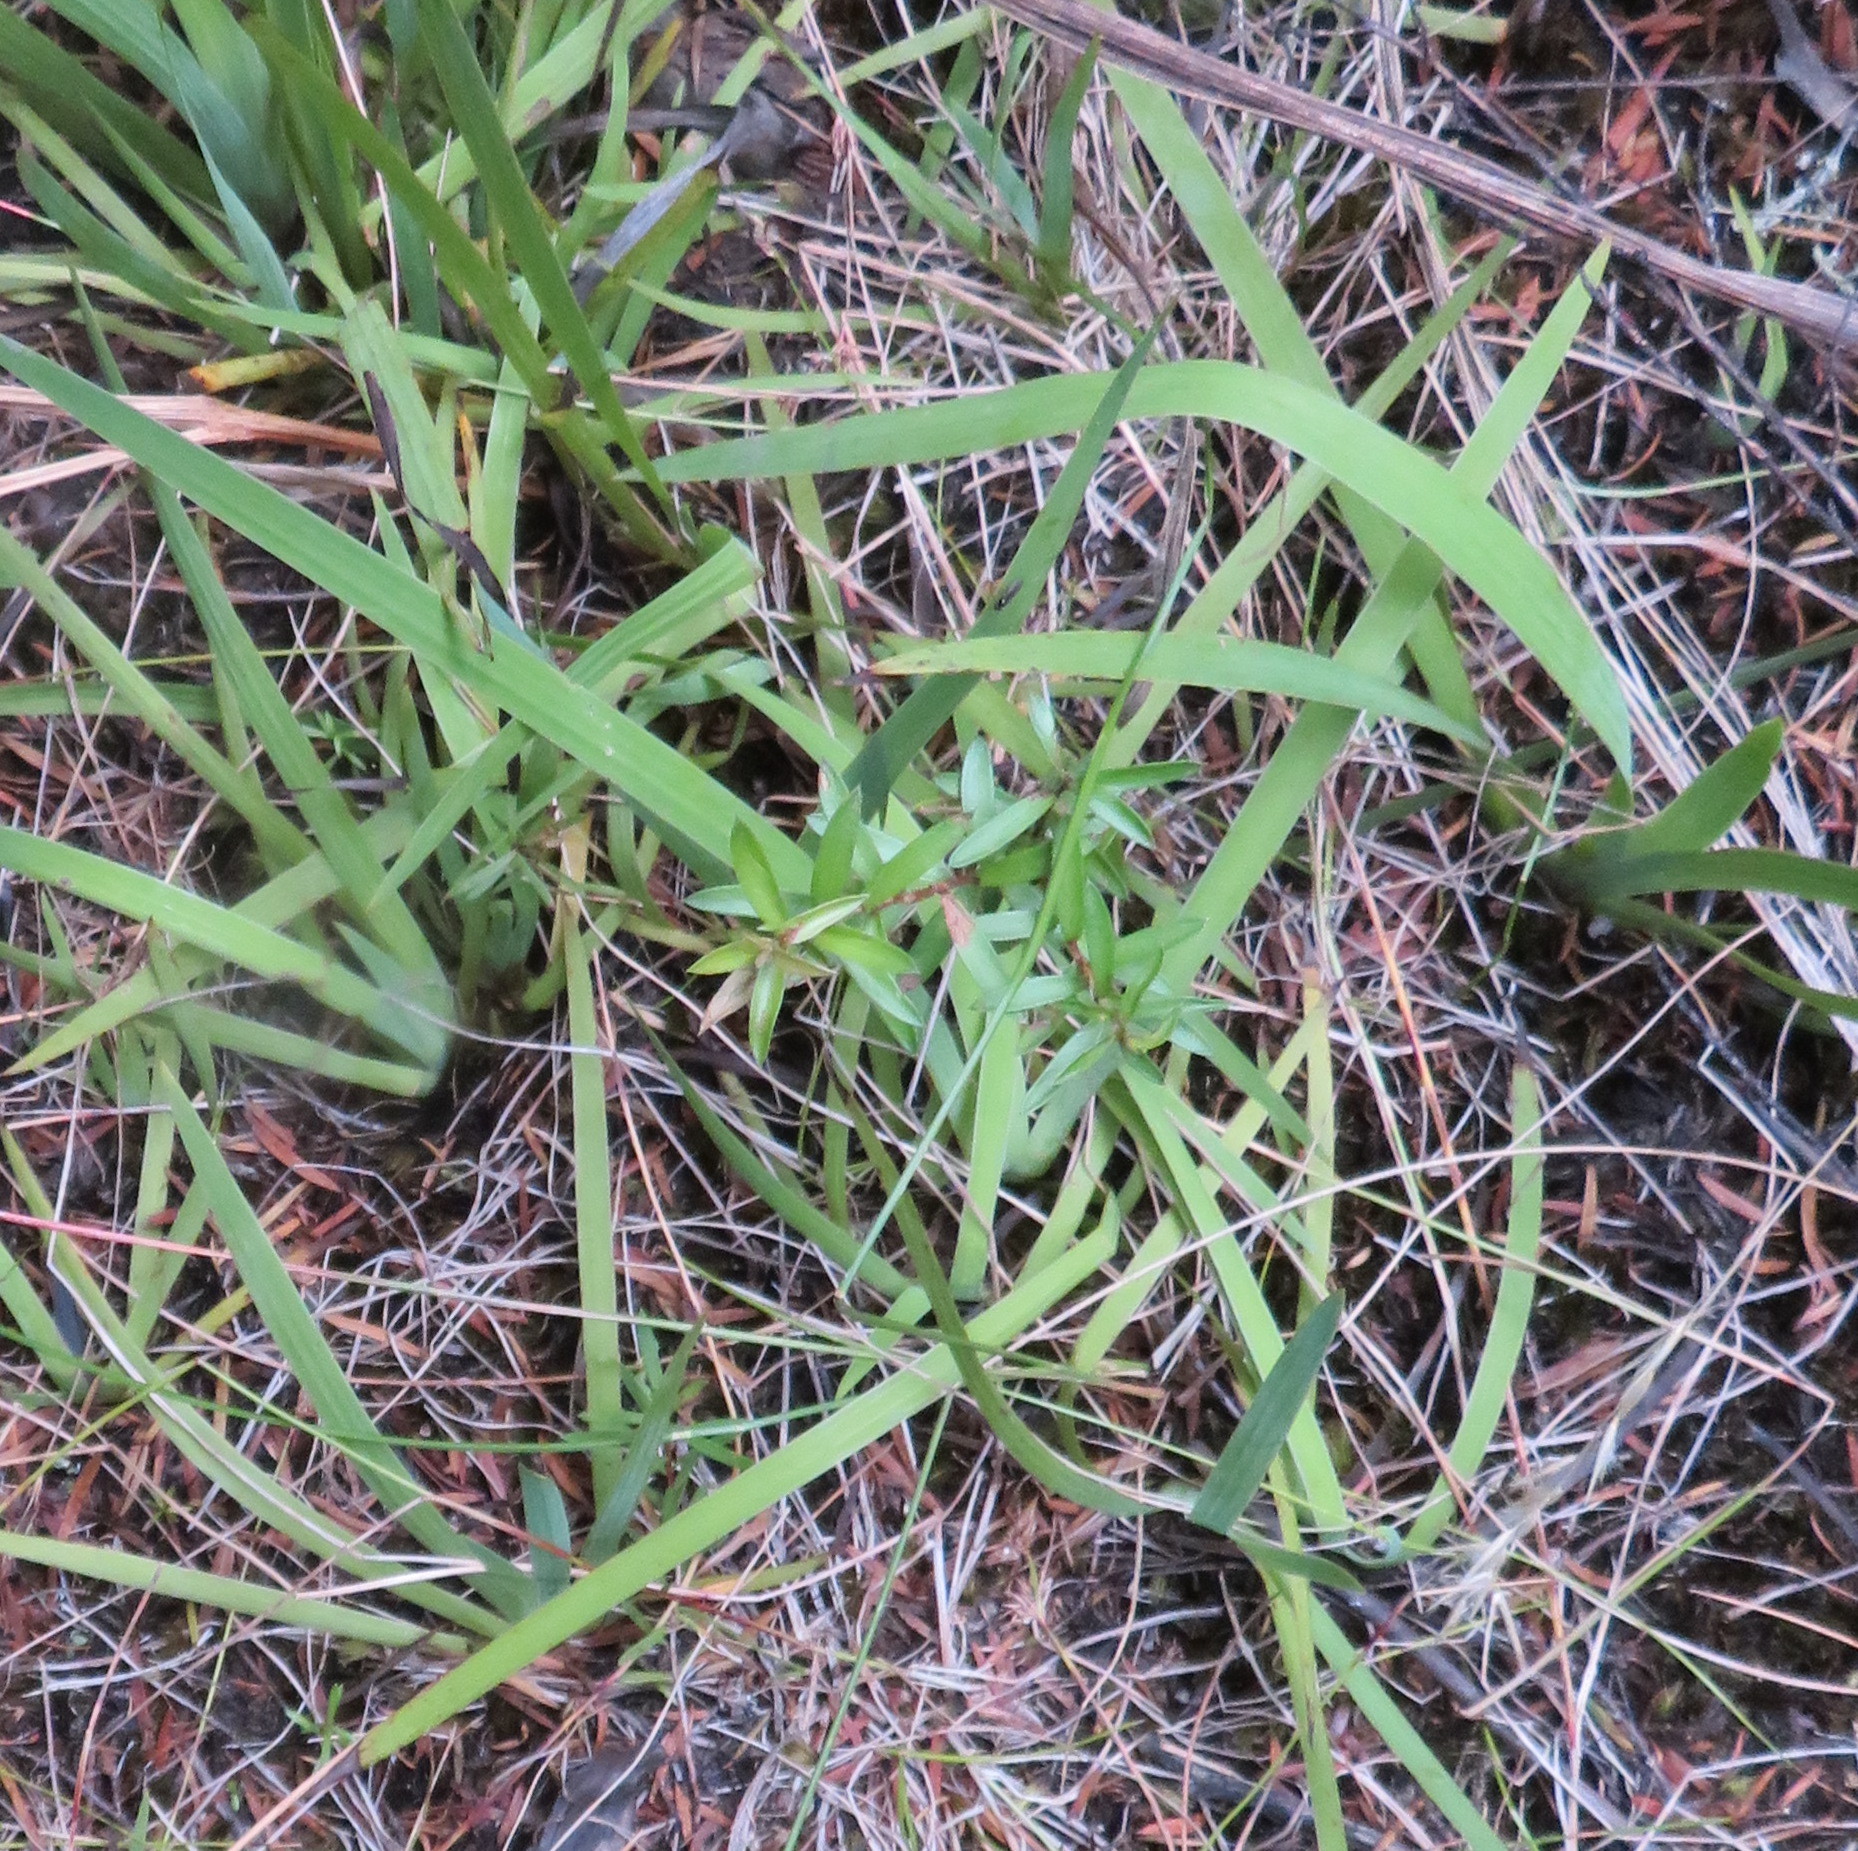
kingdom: Plantae
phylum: Tracheophyta
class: Liliopsida
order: Asparagales
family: Iridaceae
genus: Aristea
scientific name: Aristea ecklonii
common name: Blue corn-lily
